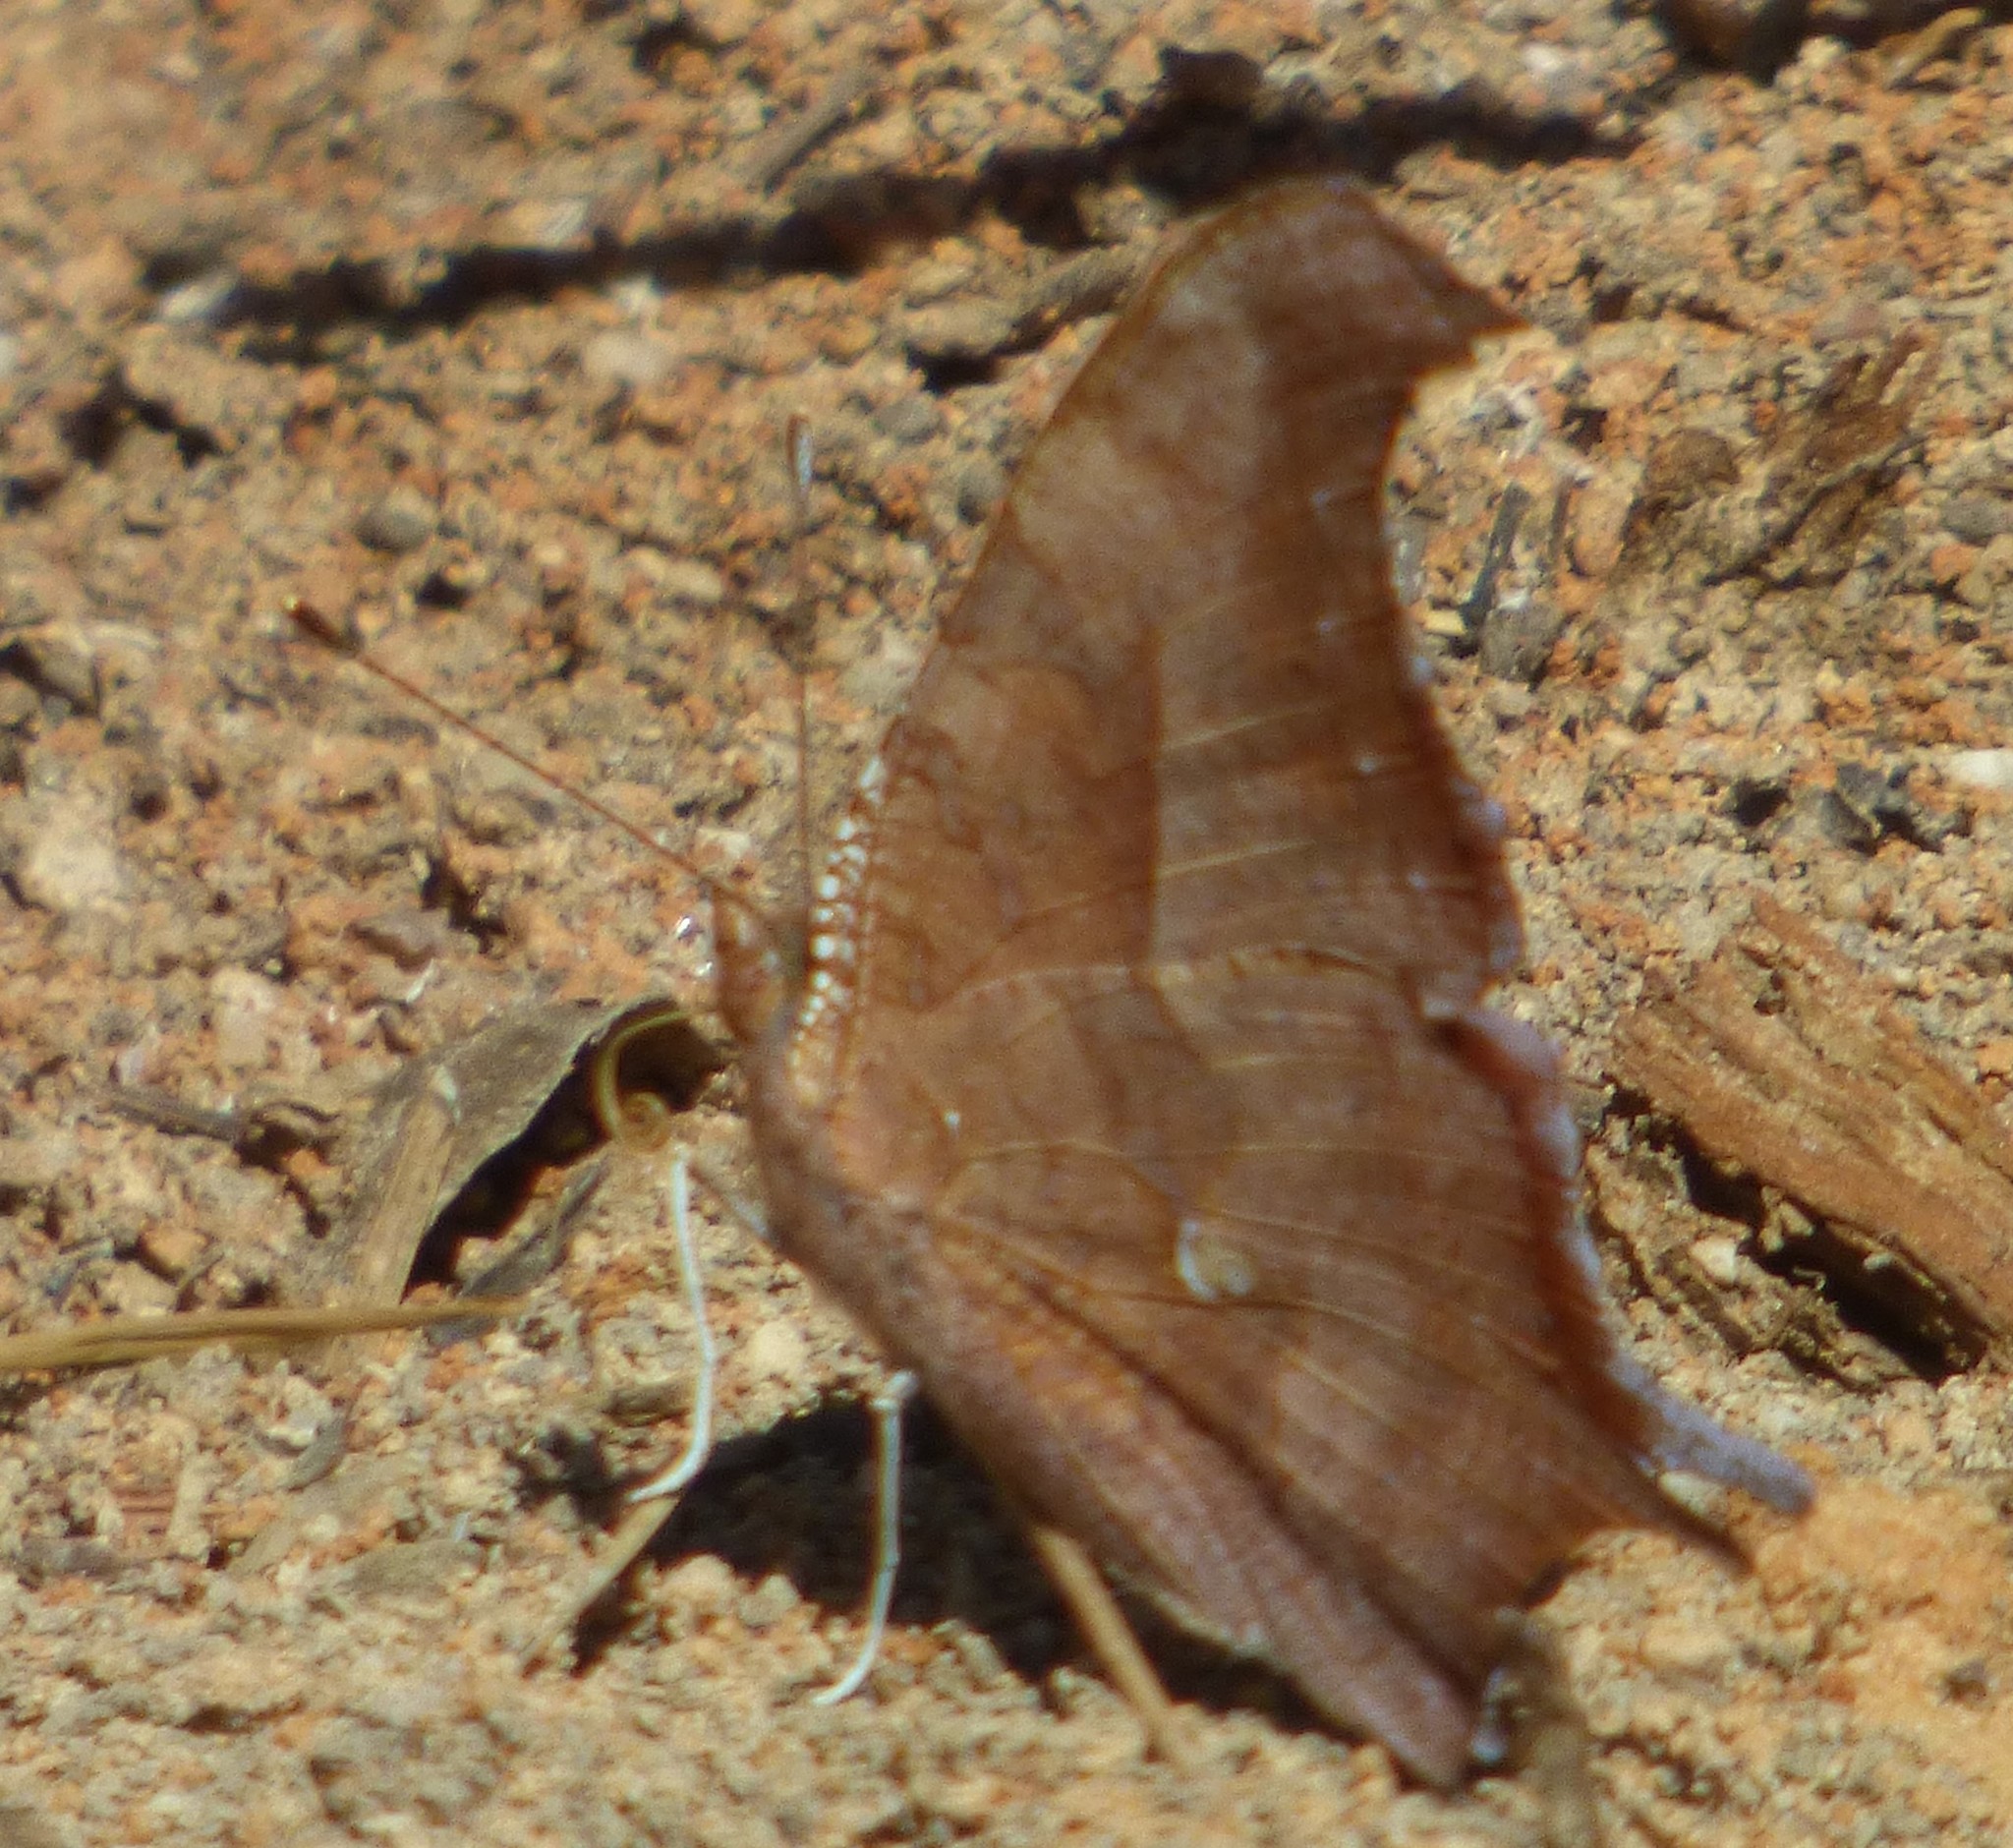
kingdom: Animalia
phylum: Arthropoda
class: Insecta
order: Lepidoptera
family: Nymphalidae
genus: Polygonia
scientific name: Polygonia interrogationis
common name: Question mark
